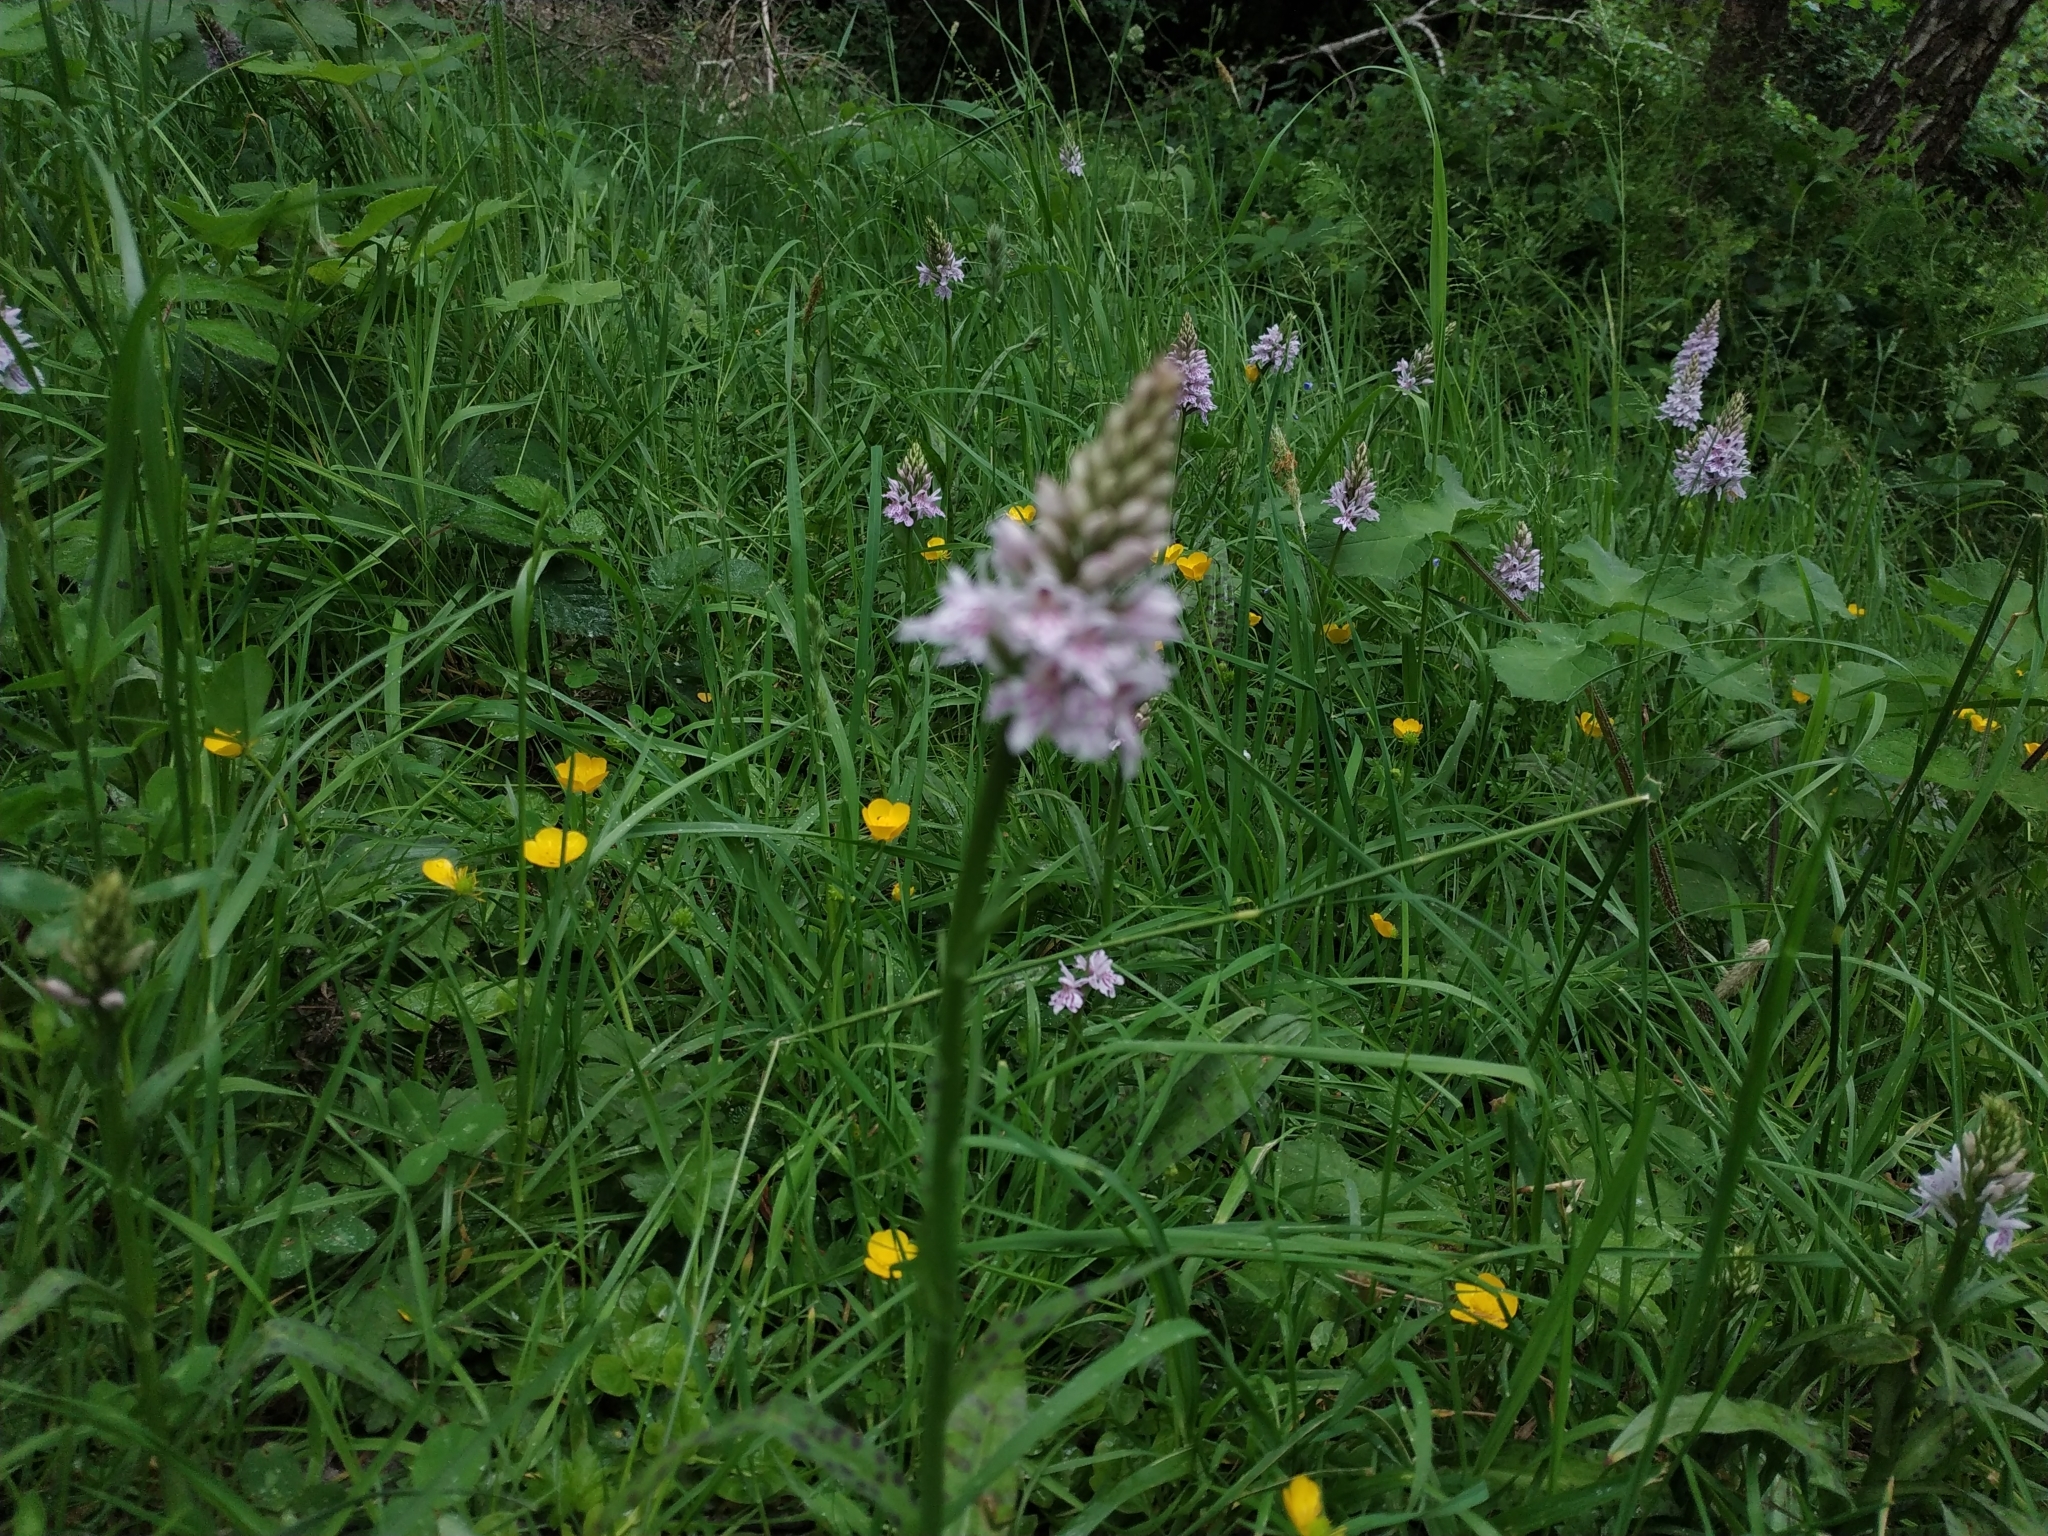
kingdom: Plantae
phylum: Tracheophyta
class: Liliopsida
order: Asparagales
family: Orchidaceae
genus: Dactylorhiza
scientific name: Dactylorhiza maculata
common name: Heath spotted-orchid
